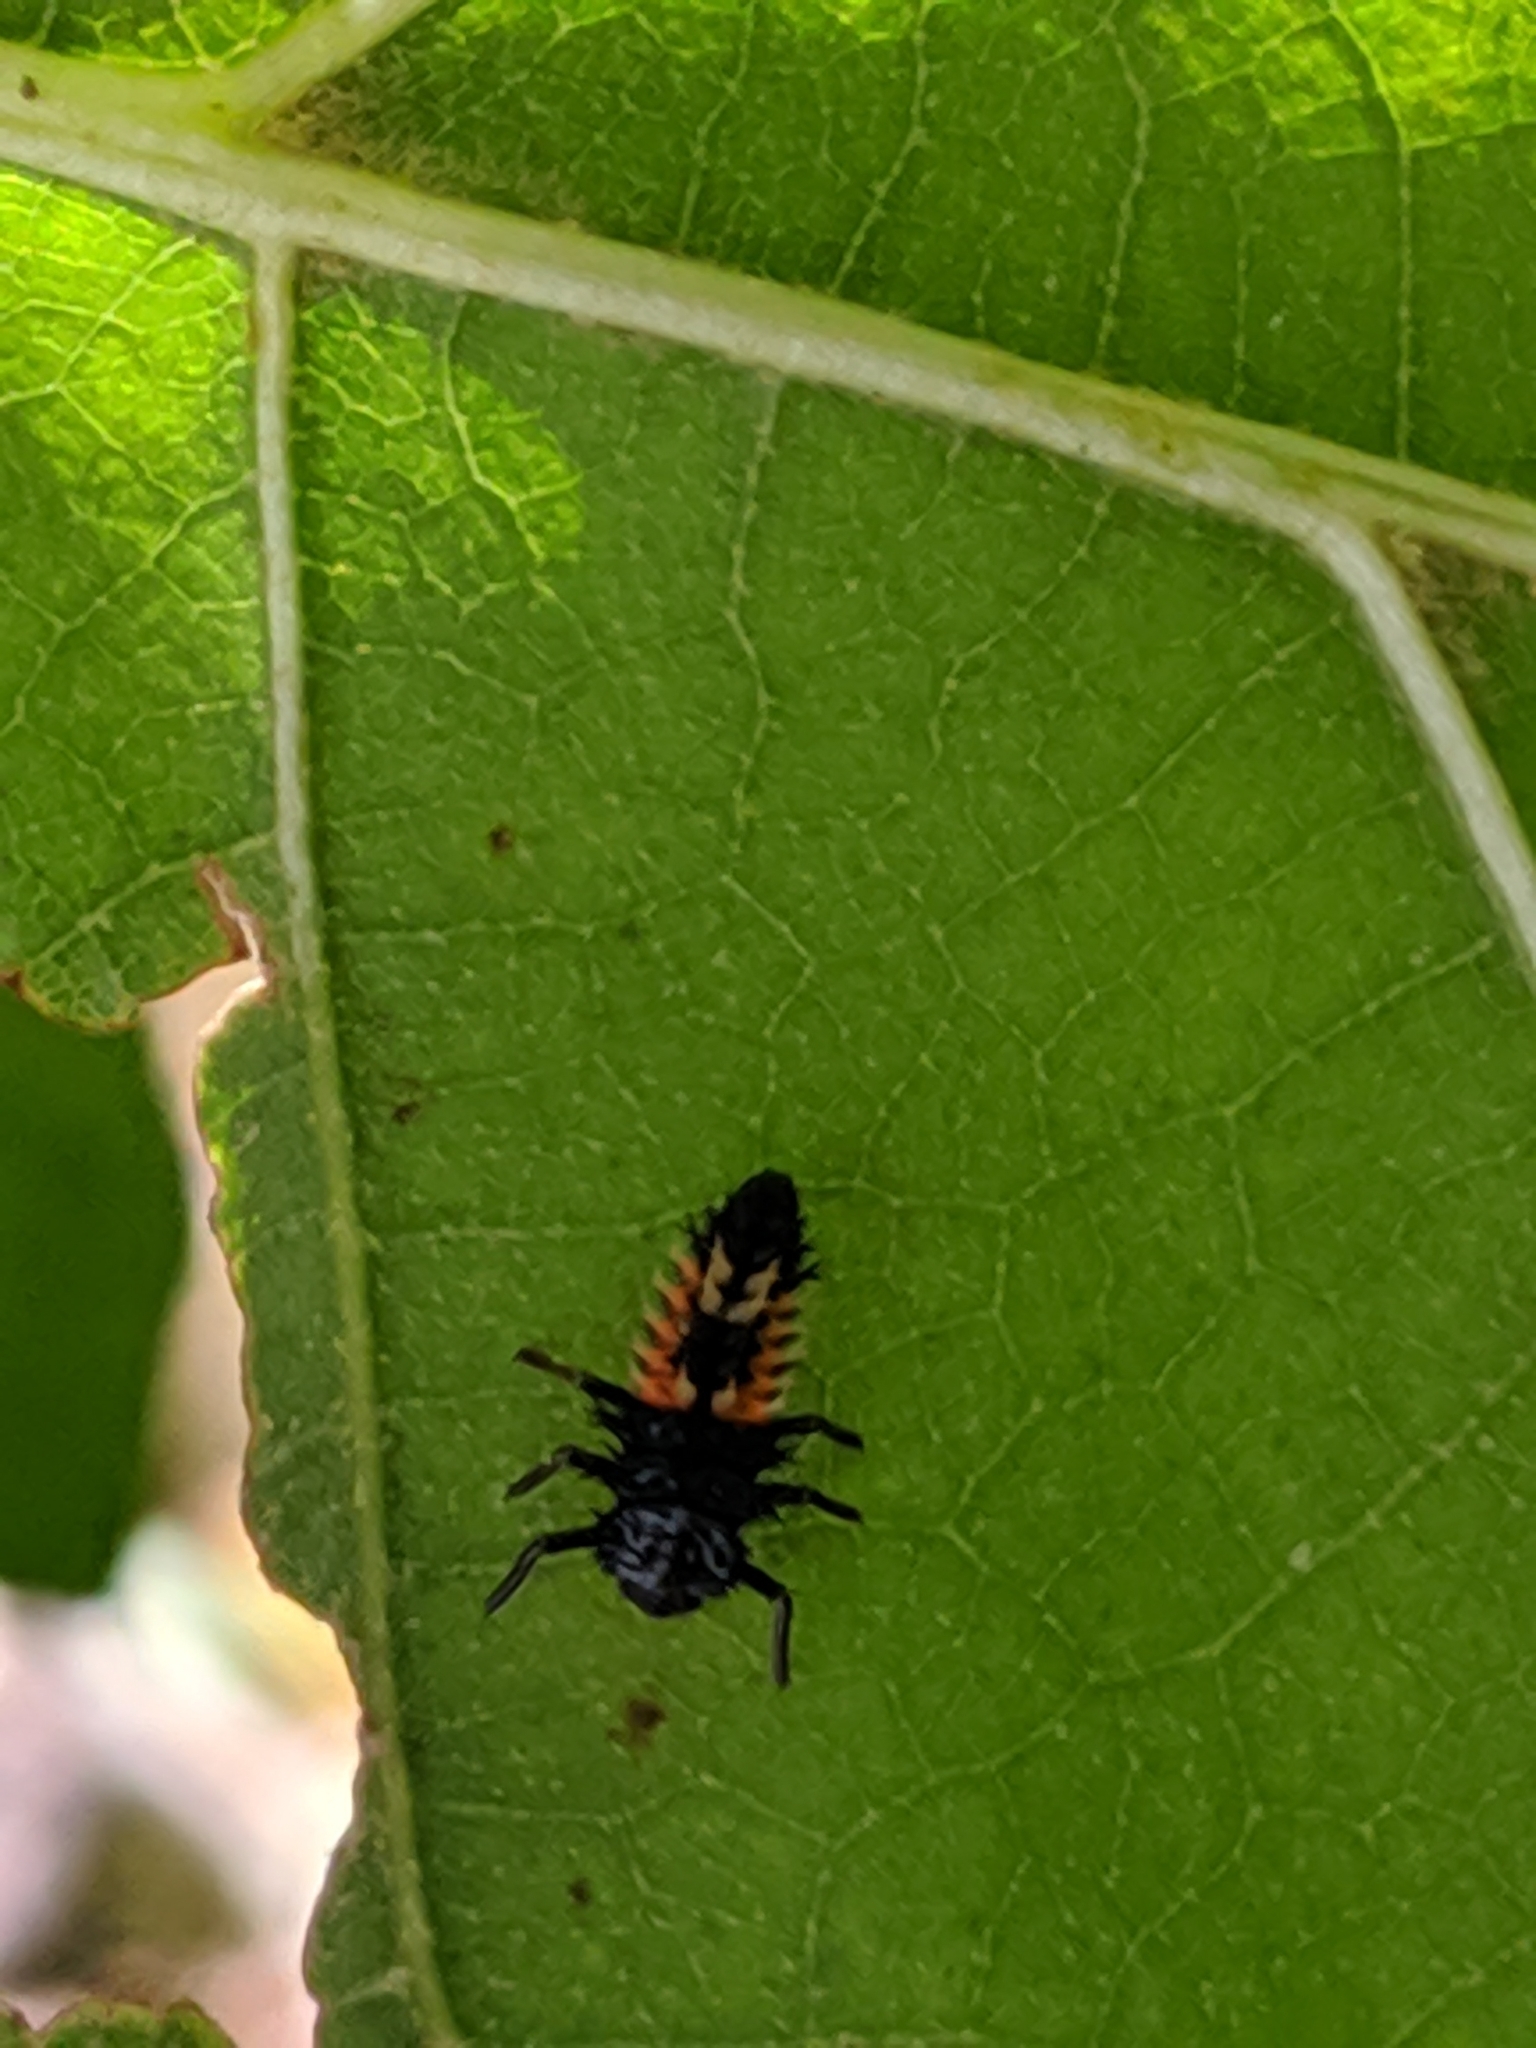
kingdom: Animalia
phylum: Arthropoda
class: Insecta
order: Coleoptera
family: Coccinellidae
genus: Harmonia
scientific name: Harmonia axyridis
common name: Harlequin ladybird
